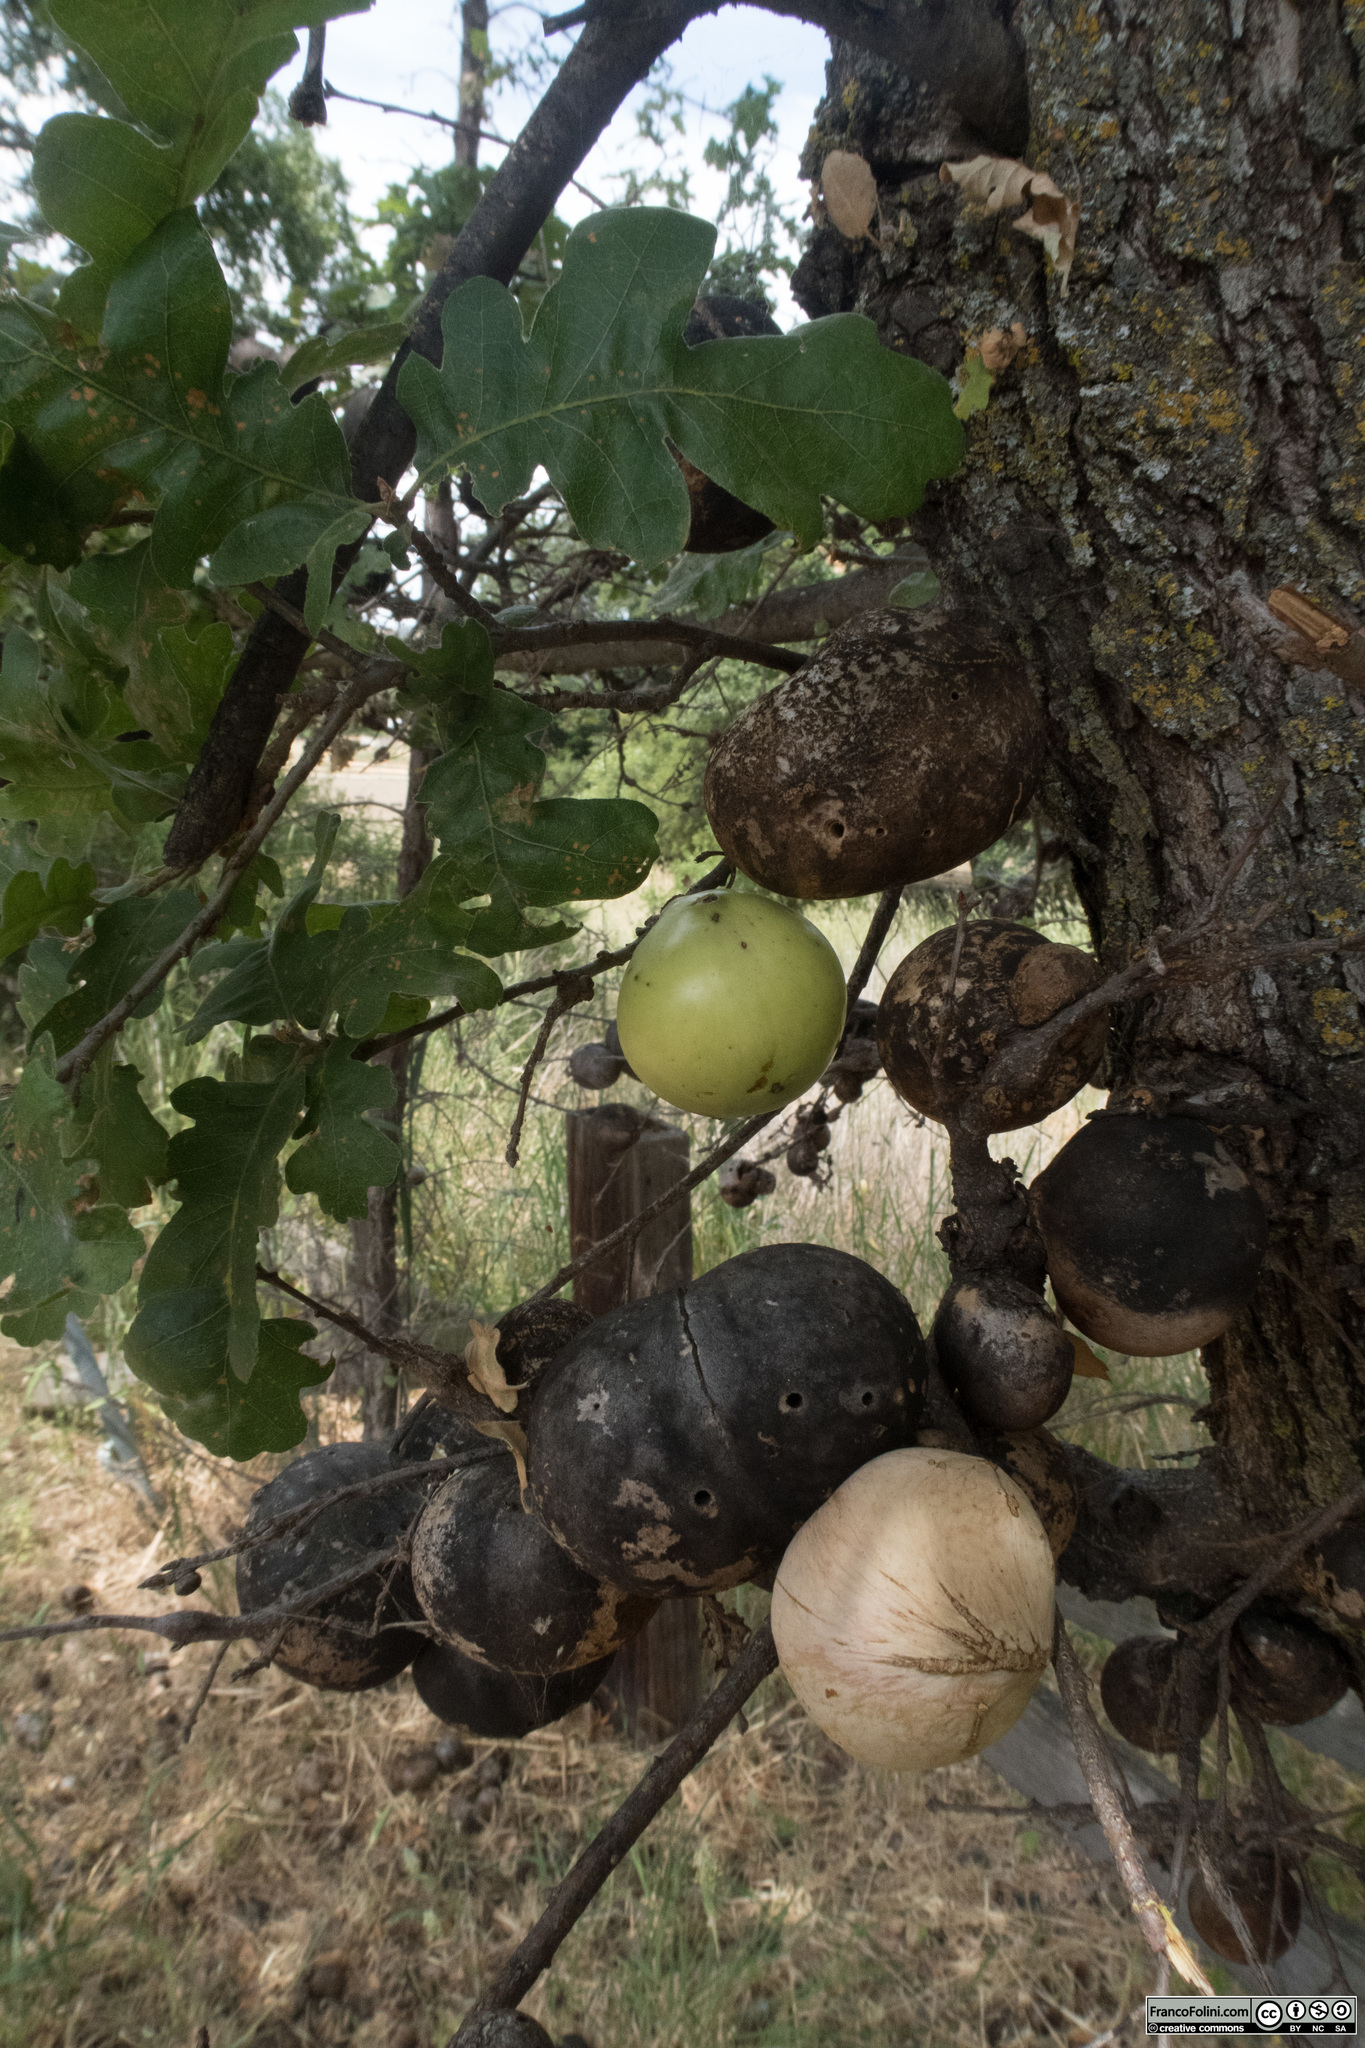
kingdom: Animalia
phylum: Arthropoda
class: Insecta
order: Hymenoptera
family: Cynipidae
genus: Andricus
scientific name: Andricus quercuscalifornicus
